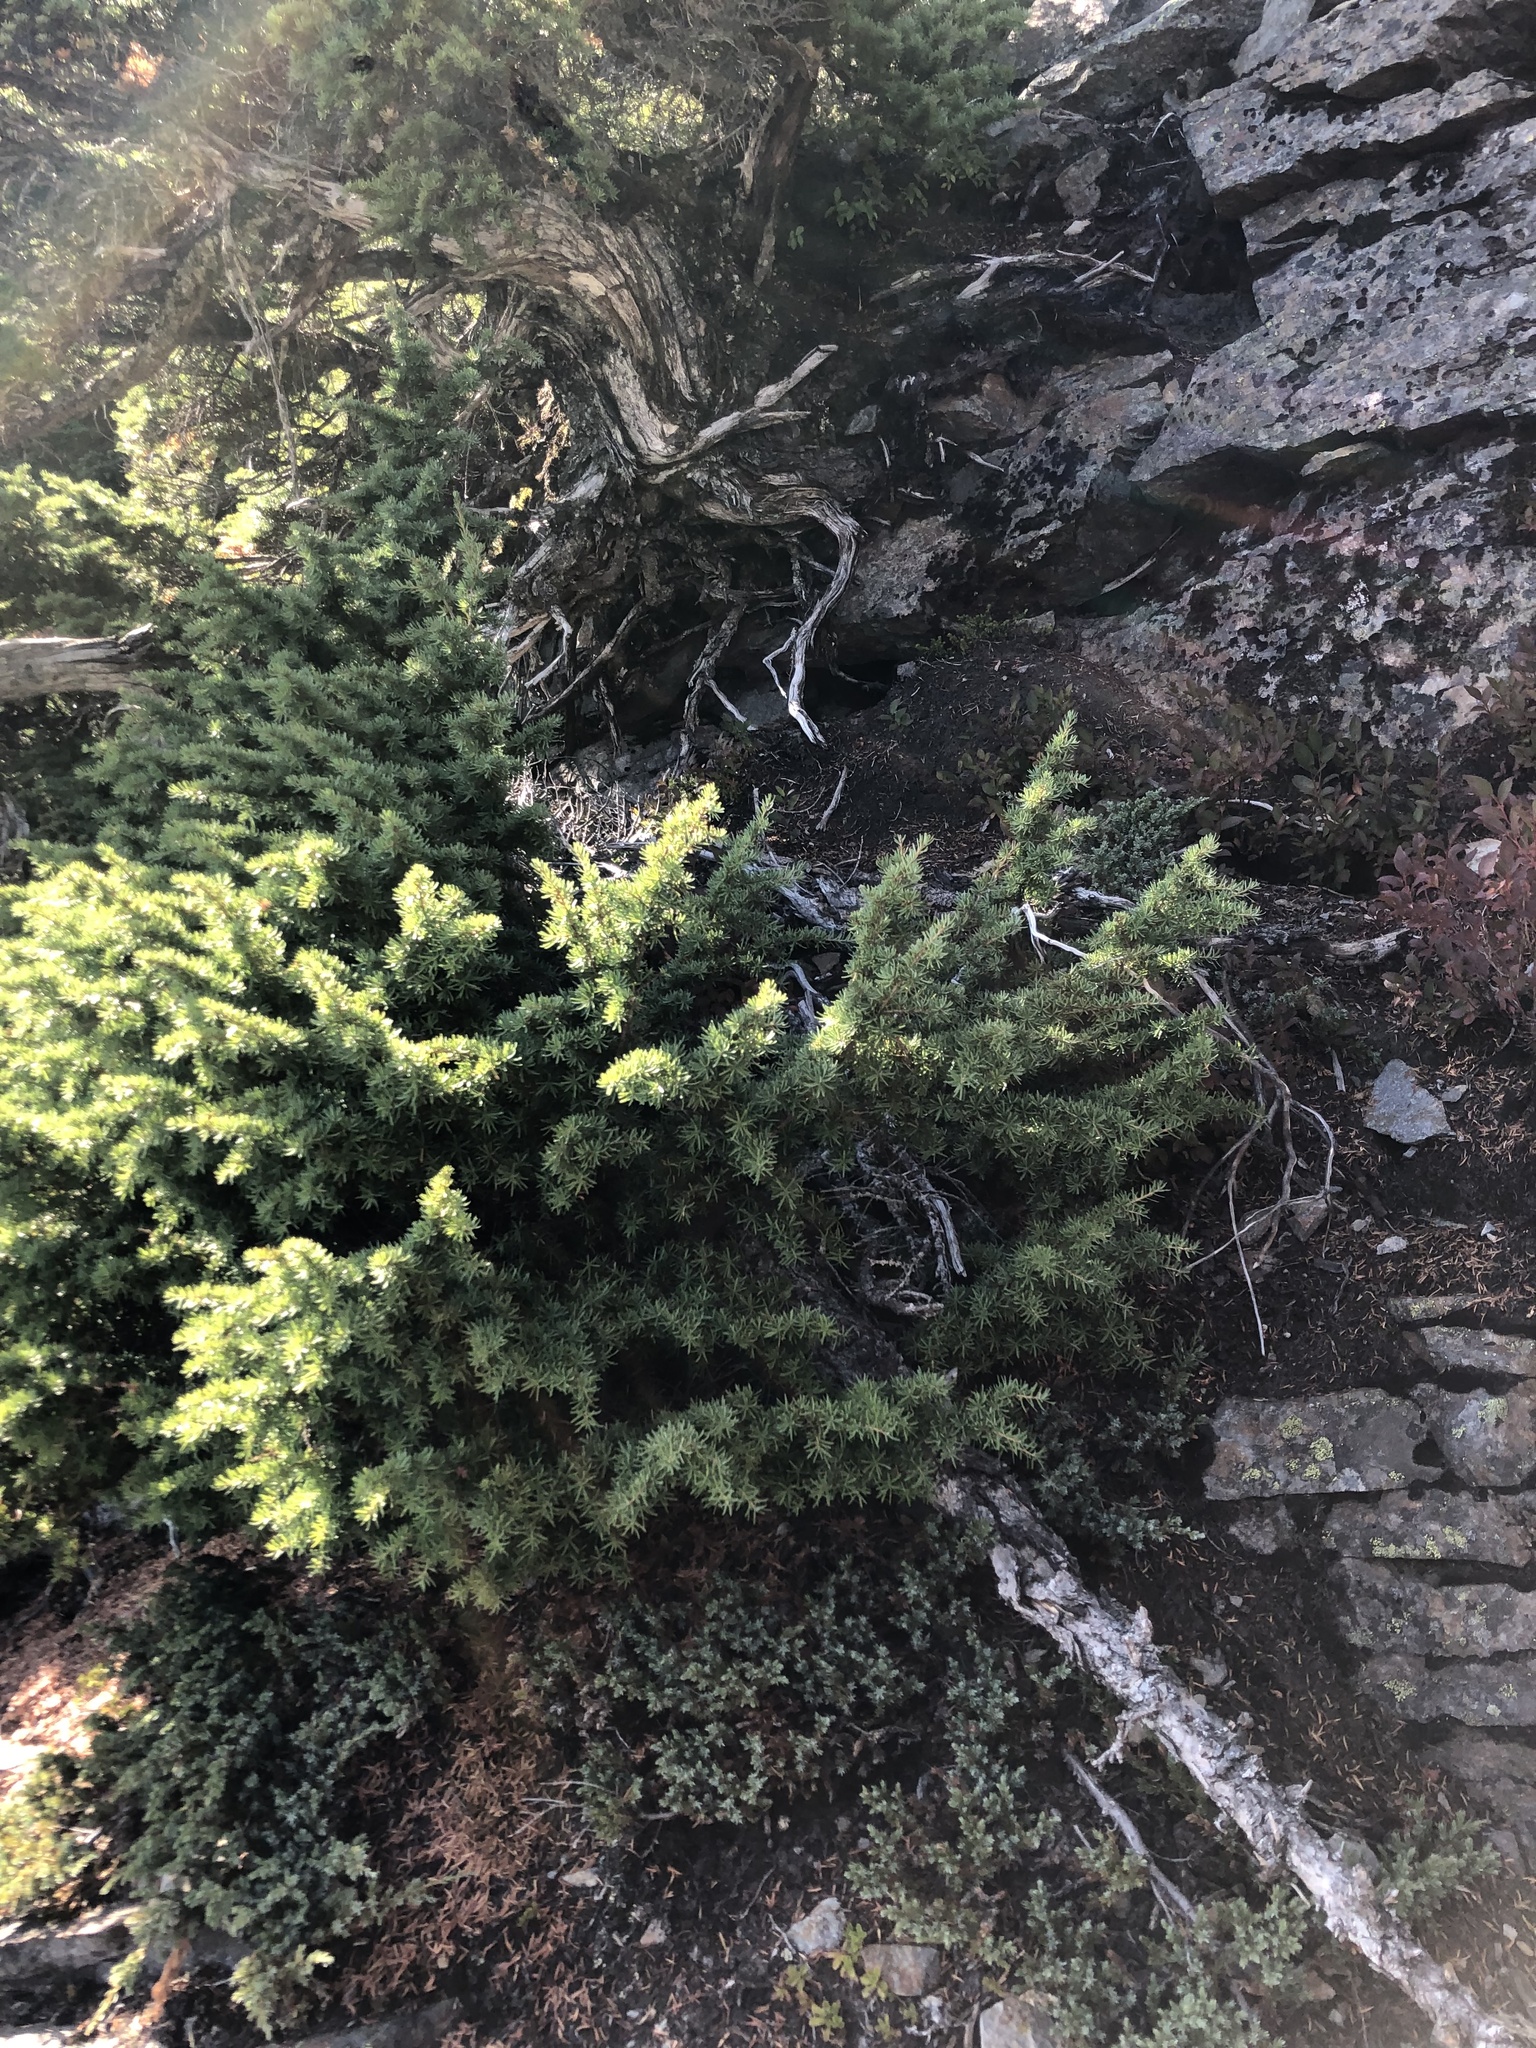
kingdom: Plantae
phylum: Tracheophyta
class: Pinopsida
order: Pinales
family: Pinaceae
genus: Tsuga
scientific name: Tsuga mertensiana
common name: Mountain hemlock
